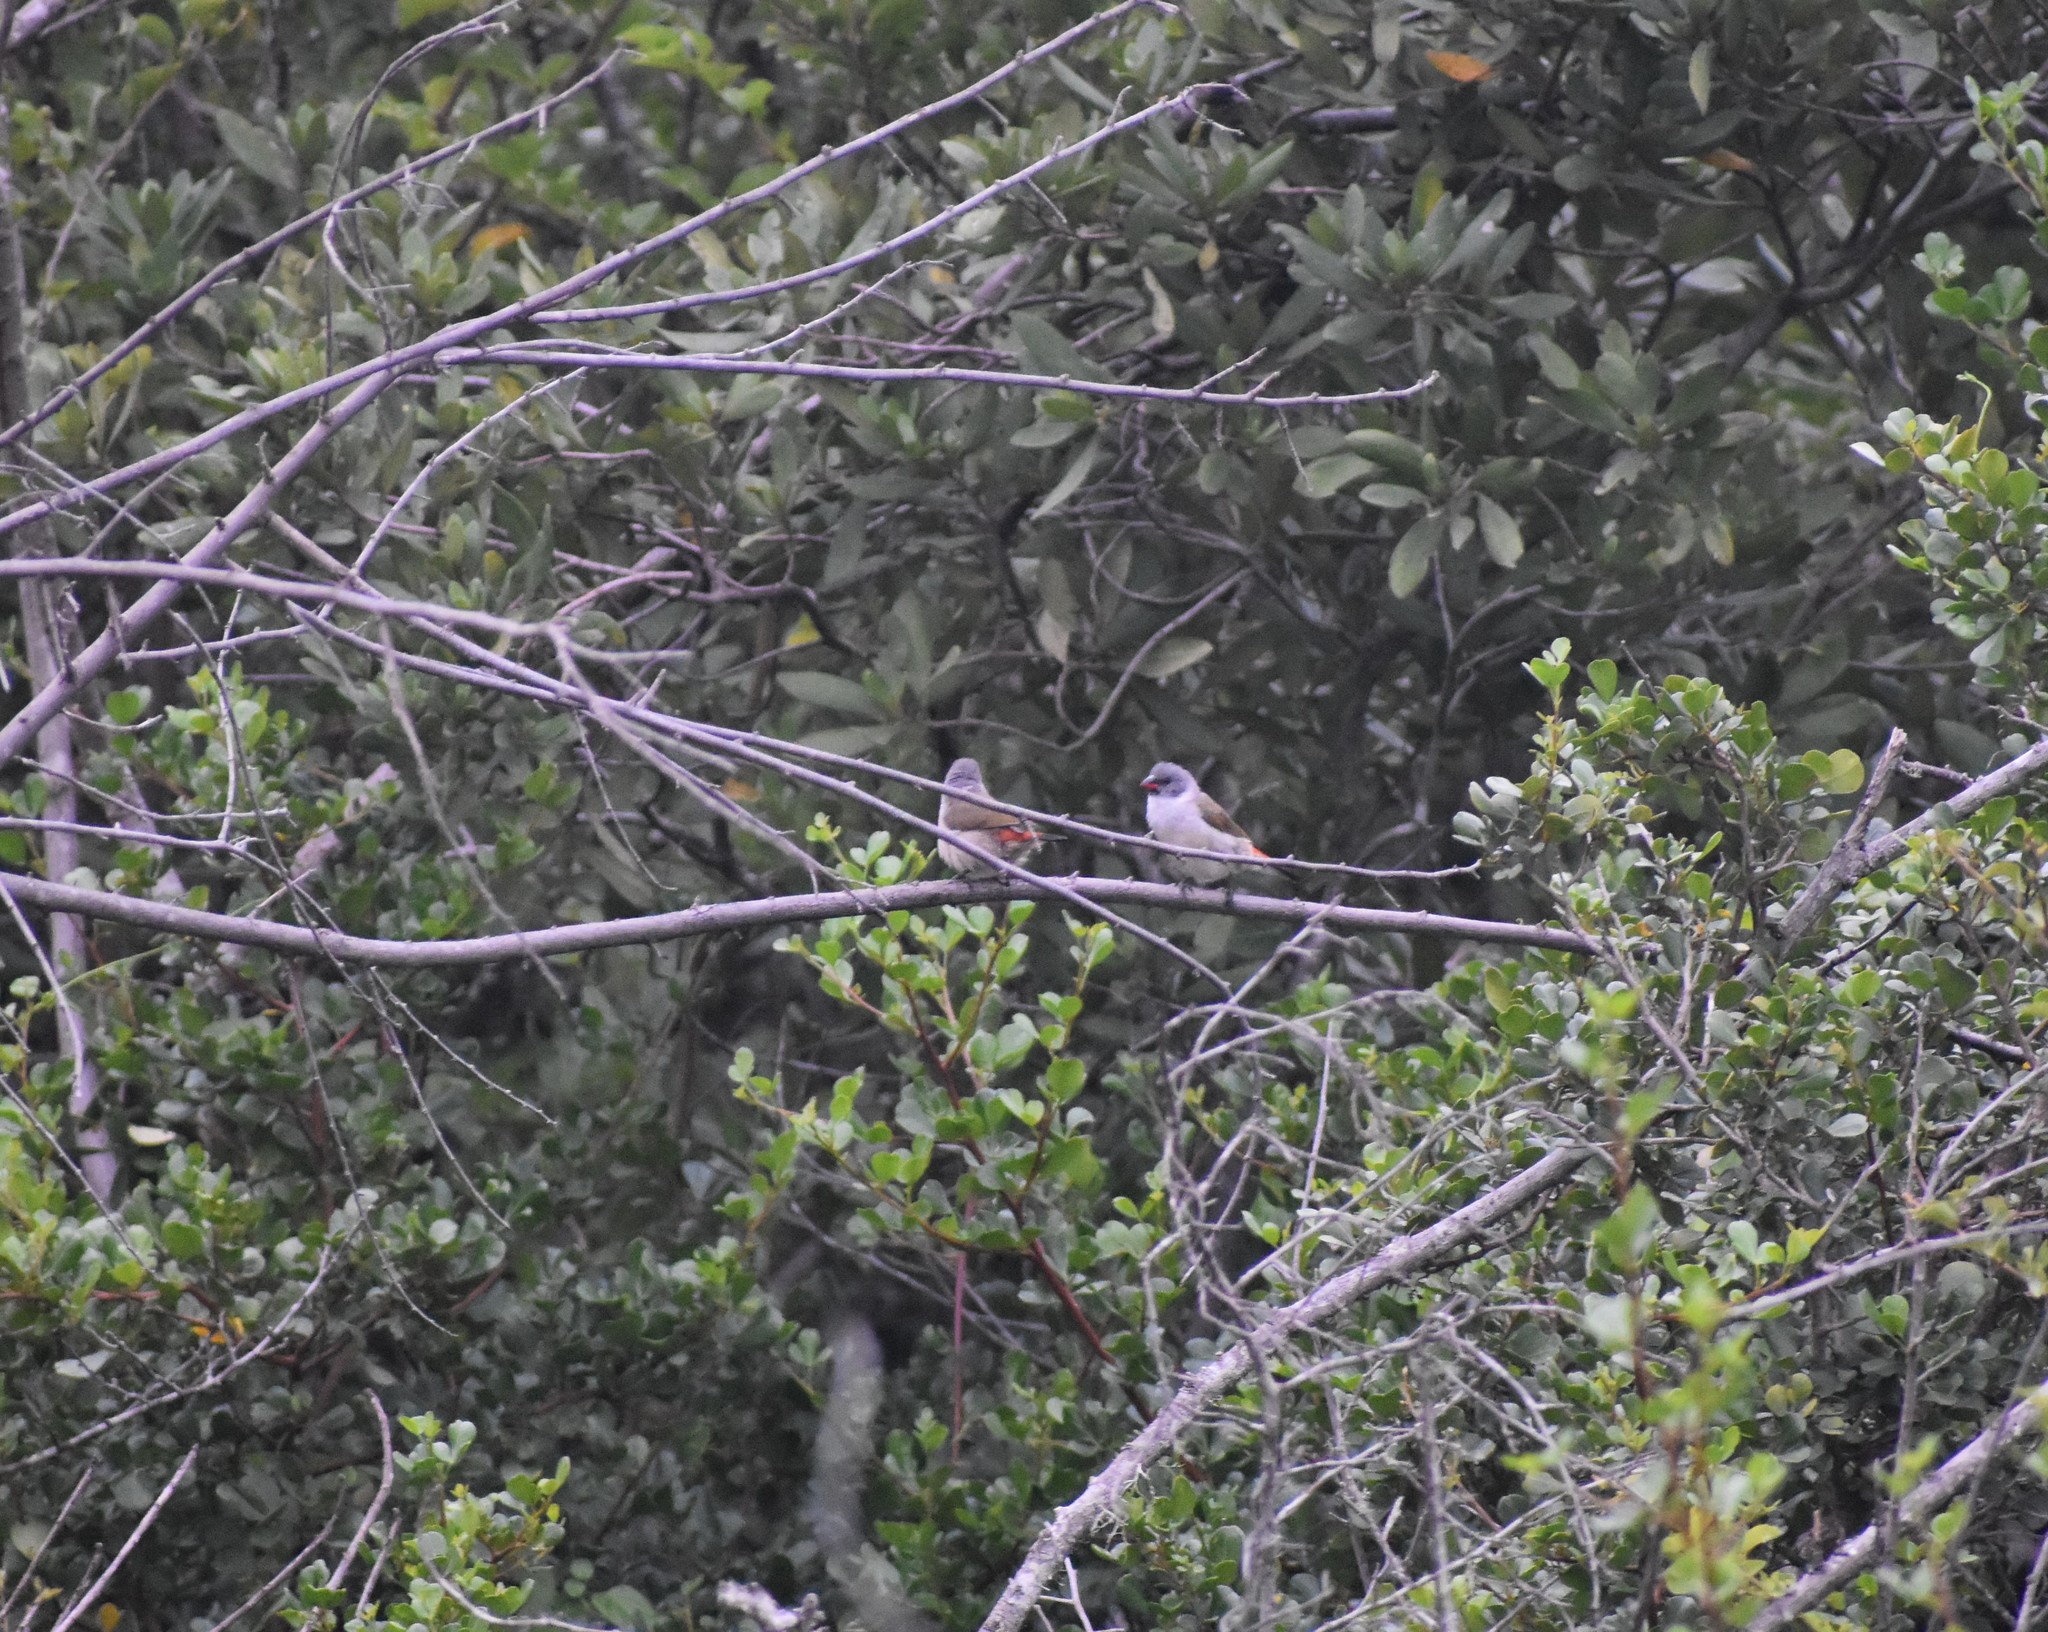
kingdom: Animalia
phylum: Chordata
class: Aves
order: Passeriformes
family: Estrildidae
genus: Coccopygia
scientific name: Coccopygia melanotis
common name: Swee waxbill
